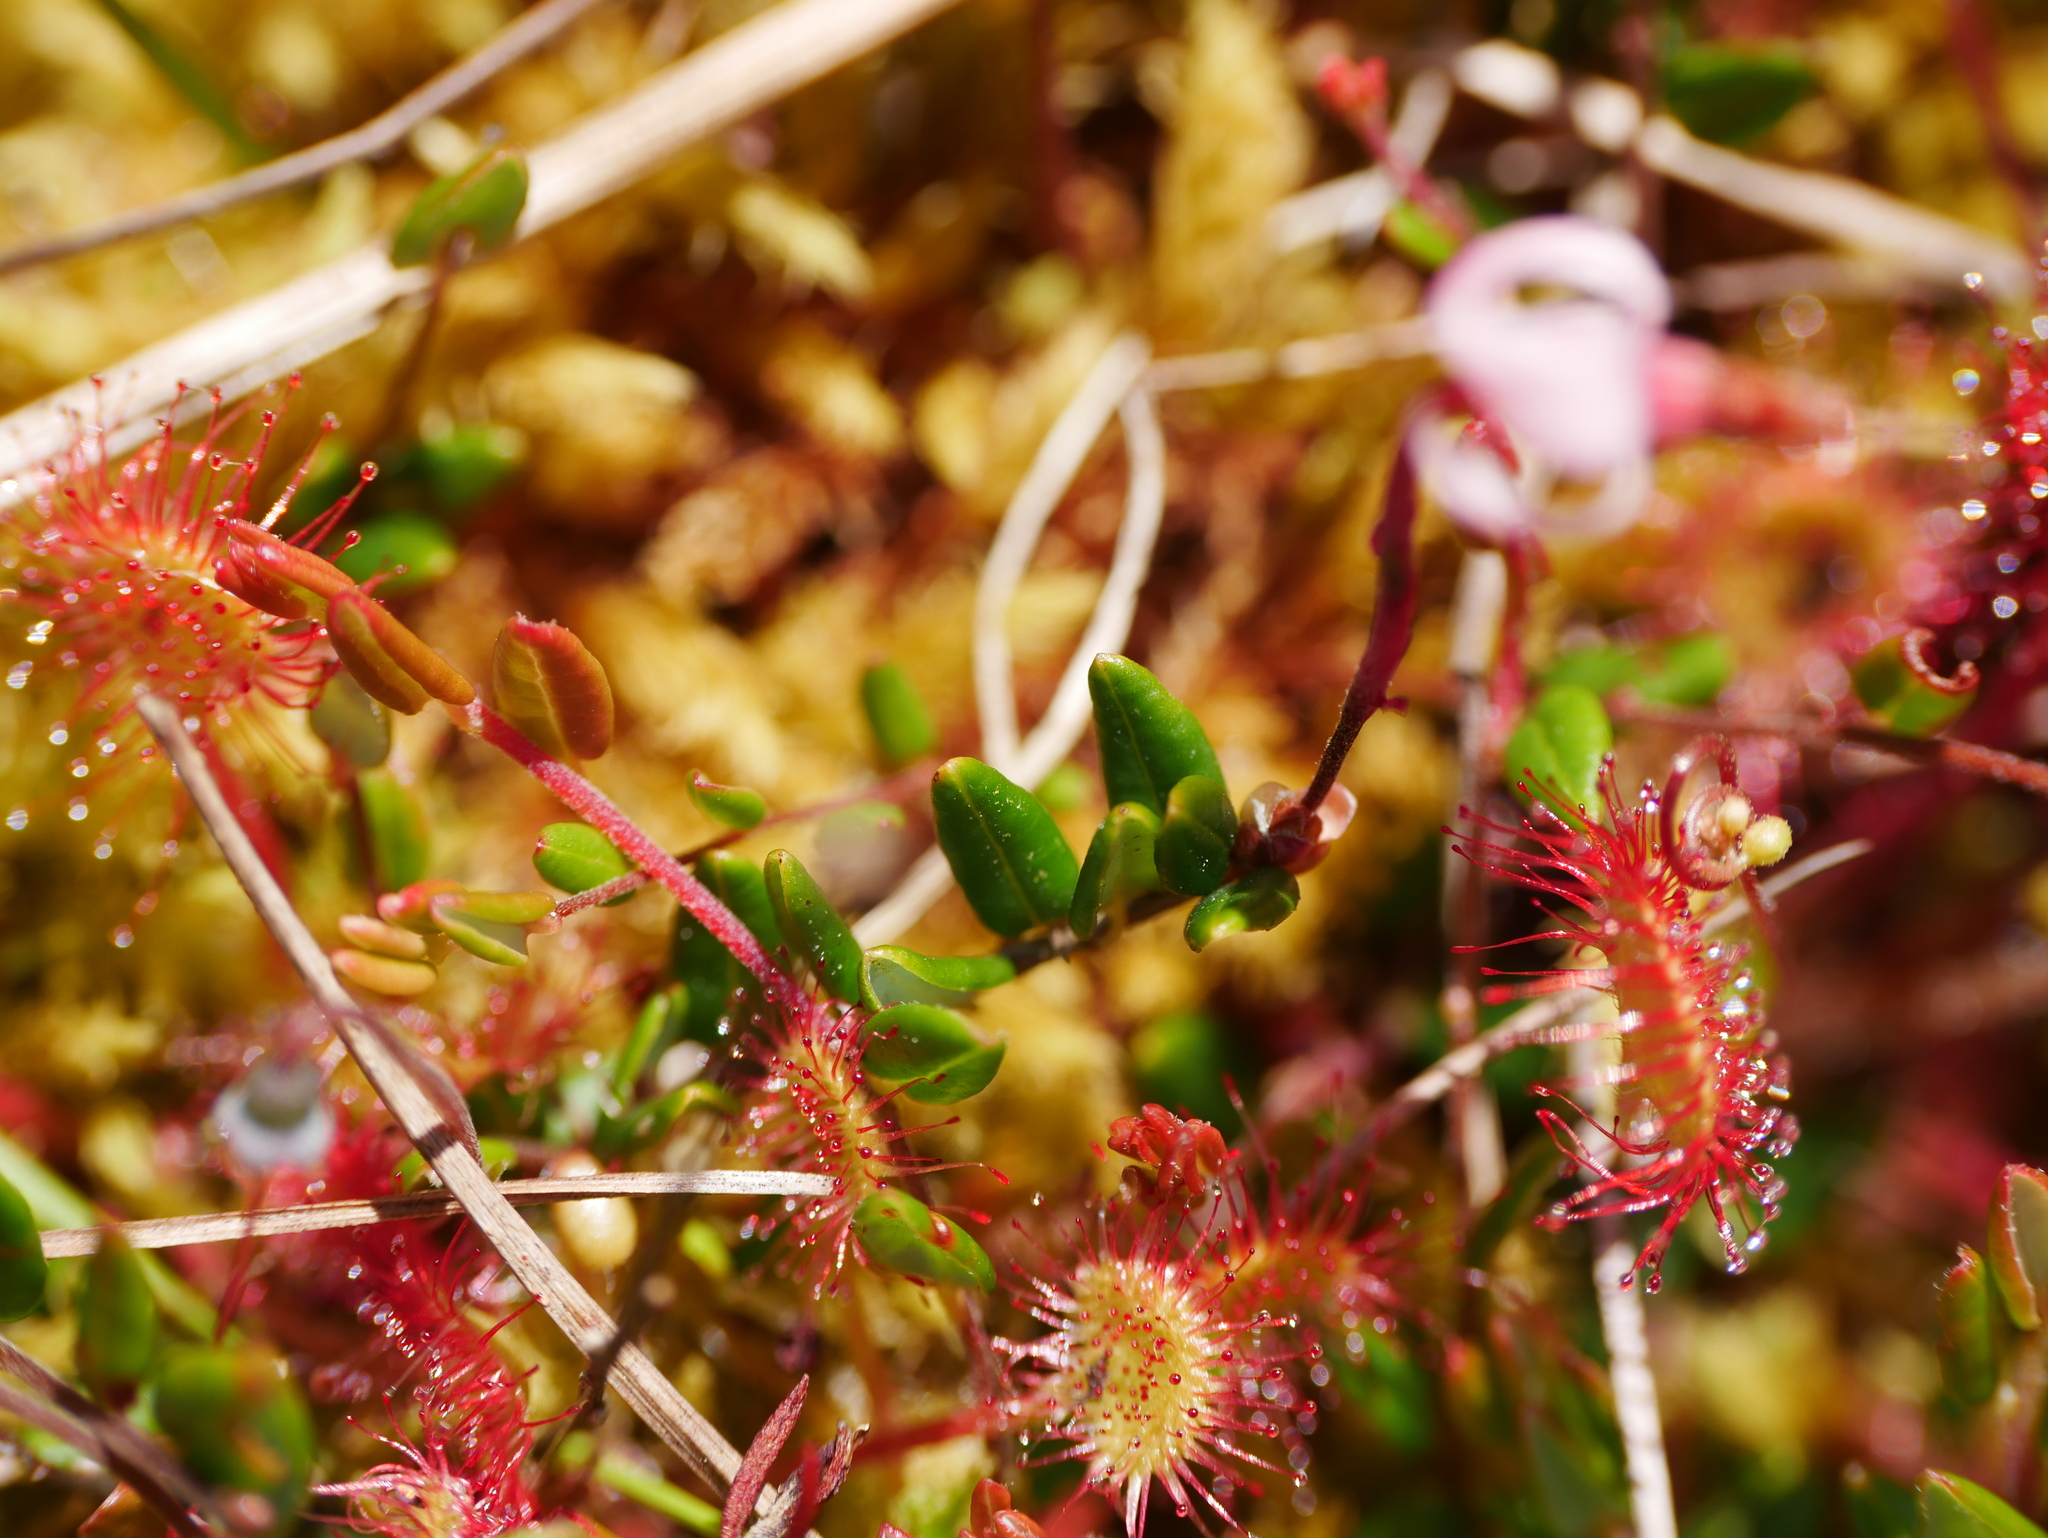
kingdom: Plantae
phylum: Tracheophyta
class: Magnoliopsida
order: Ericales
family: Ericaceae
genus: Vaccinium
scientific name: Vaccinium oxycoccos
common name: Cranberry
